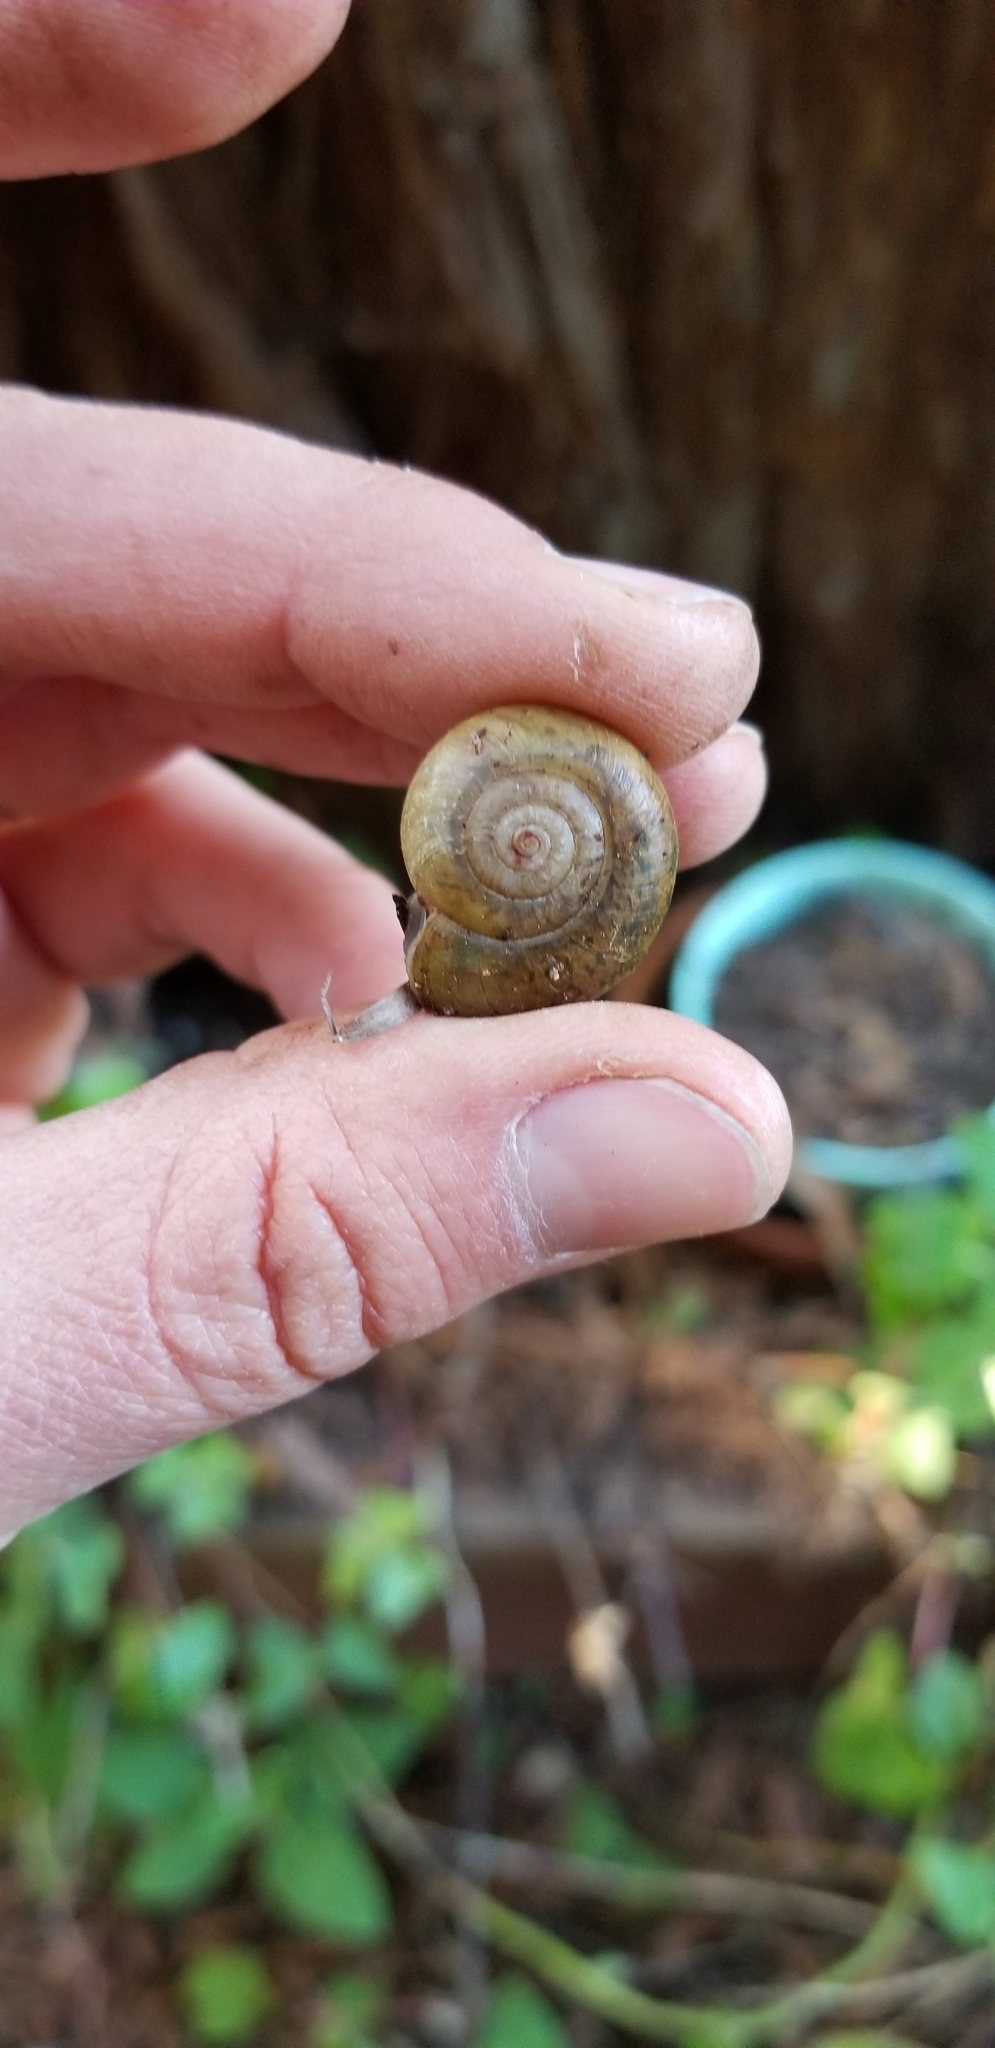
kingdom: Animalia
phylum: Mollusca
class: Gastropoda
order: Stylommatophora
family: Haplotrematidae
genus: Haplotrema
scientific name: Haplotrema minimum
